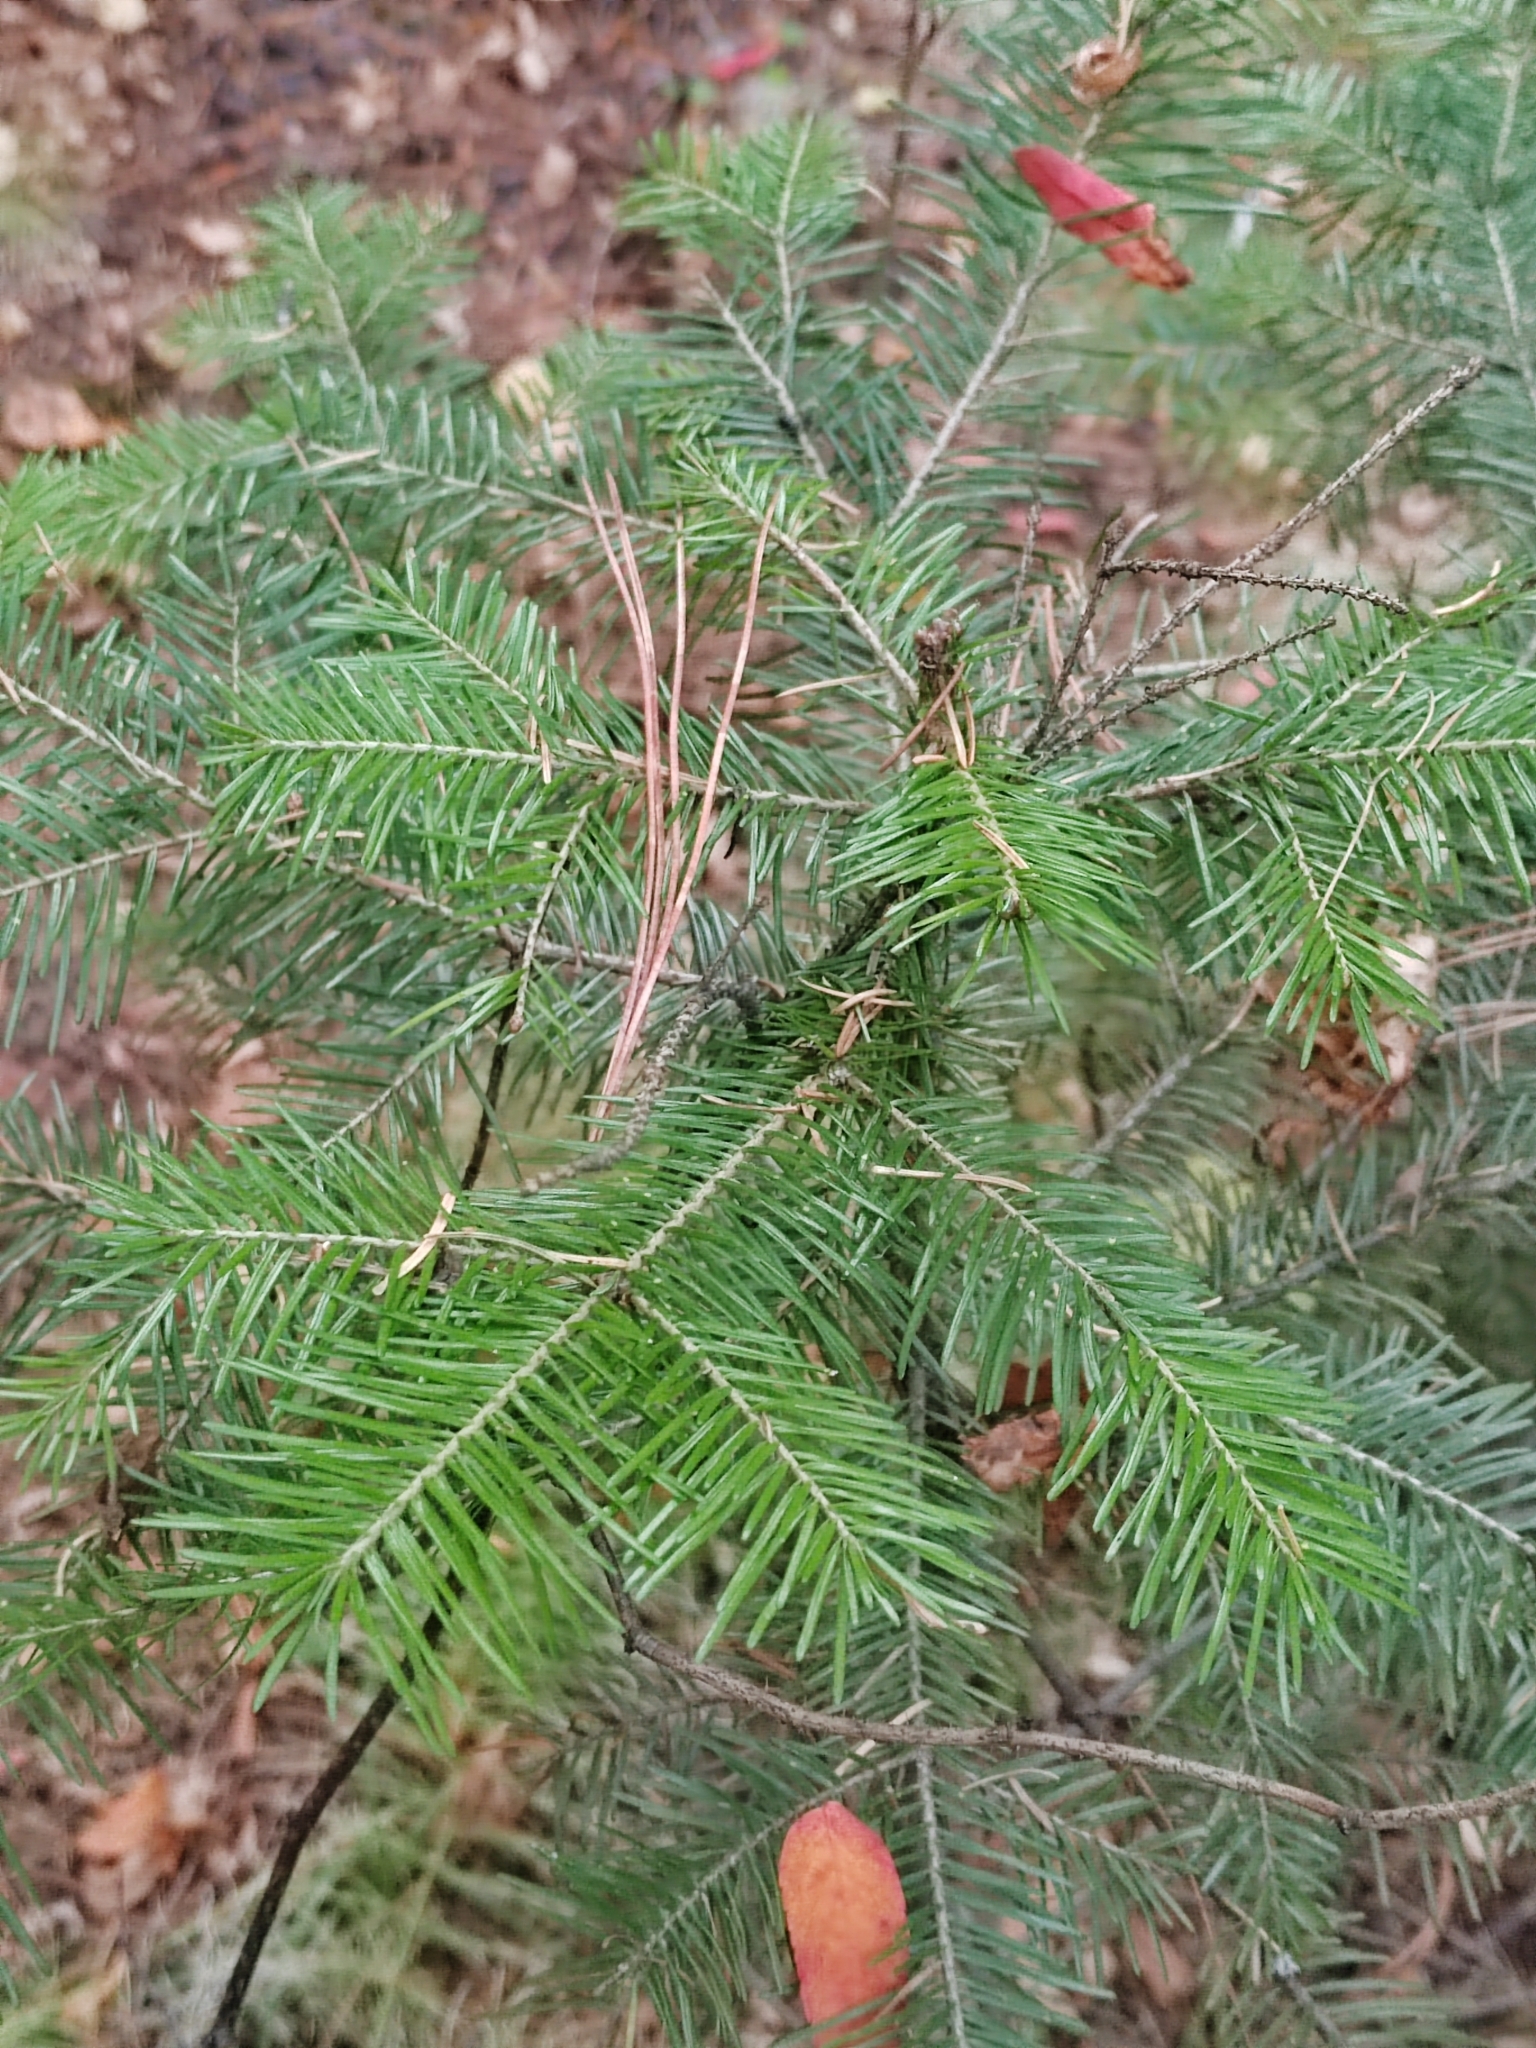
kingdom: Plantae
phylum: Tracheophyta
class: Pinopsida
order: Pinales
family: Pinaceae
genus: Abies
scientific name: Abies sibirica
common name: Siberian fir
